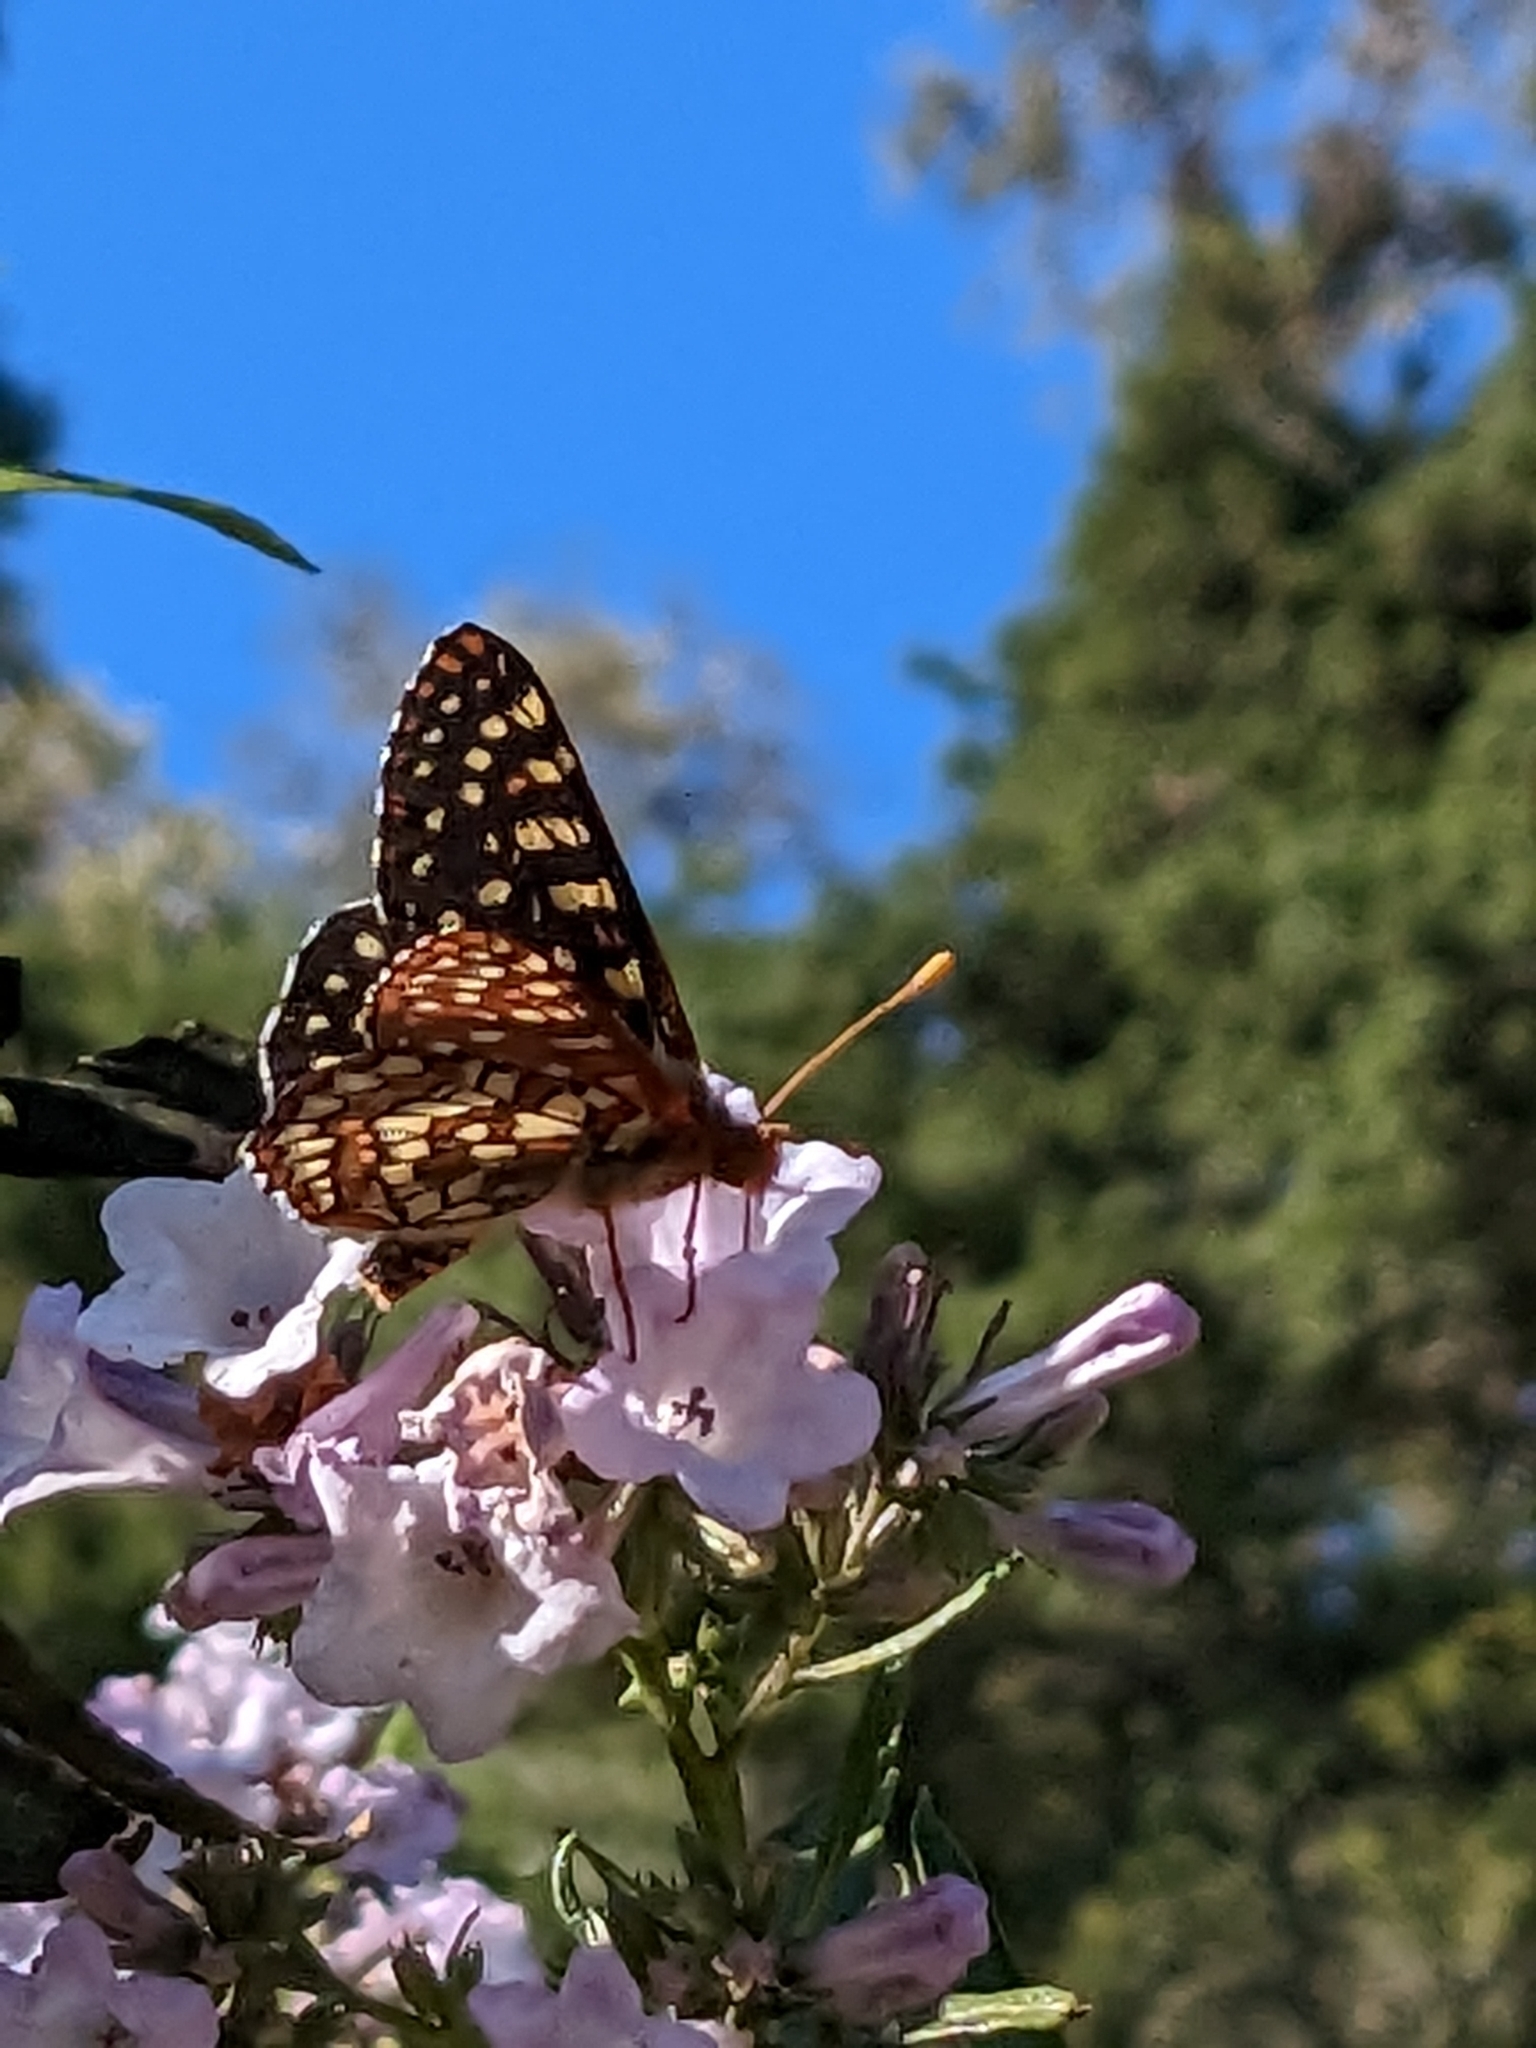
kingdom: Animalia
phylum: Arthropoda
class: Insecta
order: Lepidoptera
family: Nymphalidae
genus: Occidryas
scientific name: Occidryas chalcedona
